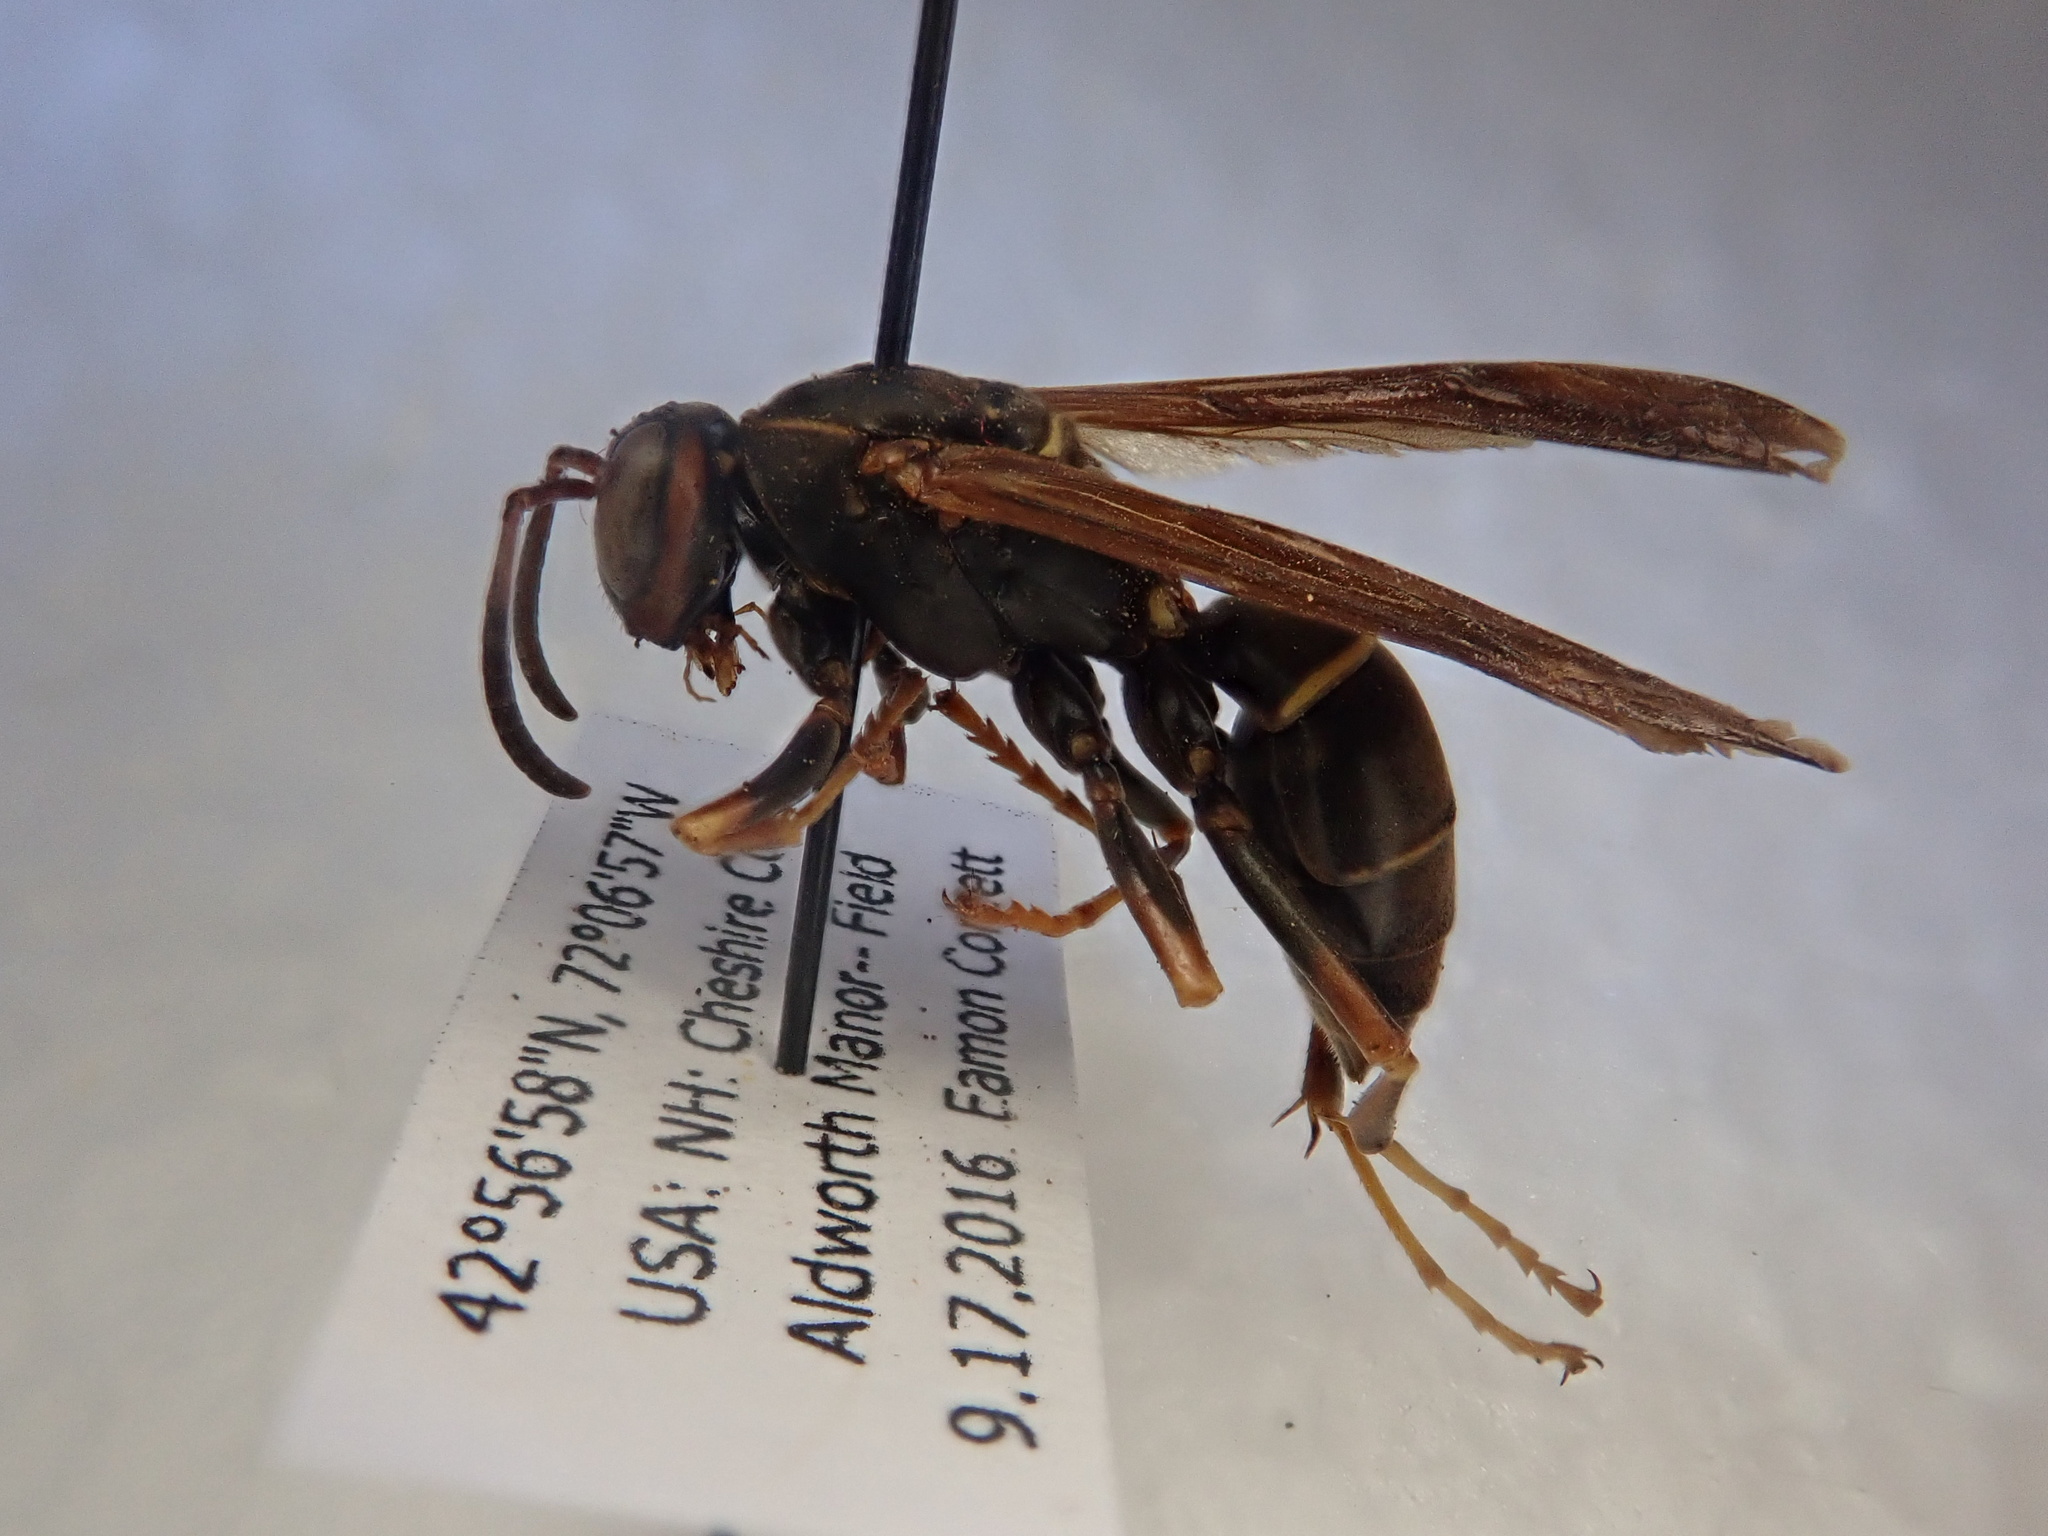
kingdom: Animalia
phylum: Arthropoda
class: Insecta
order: Hymenoptera
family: Eumenidae
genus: Polistes
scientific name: Polistes fuscatus
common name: Dark paper wasp
